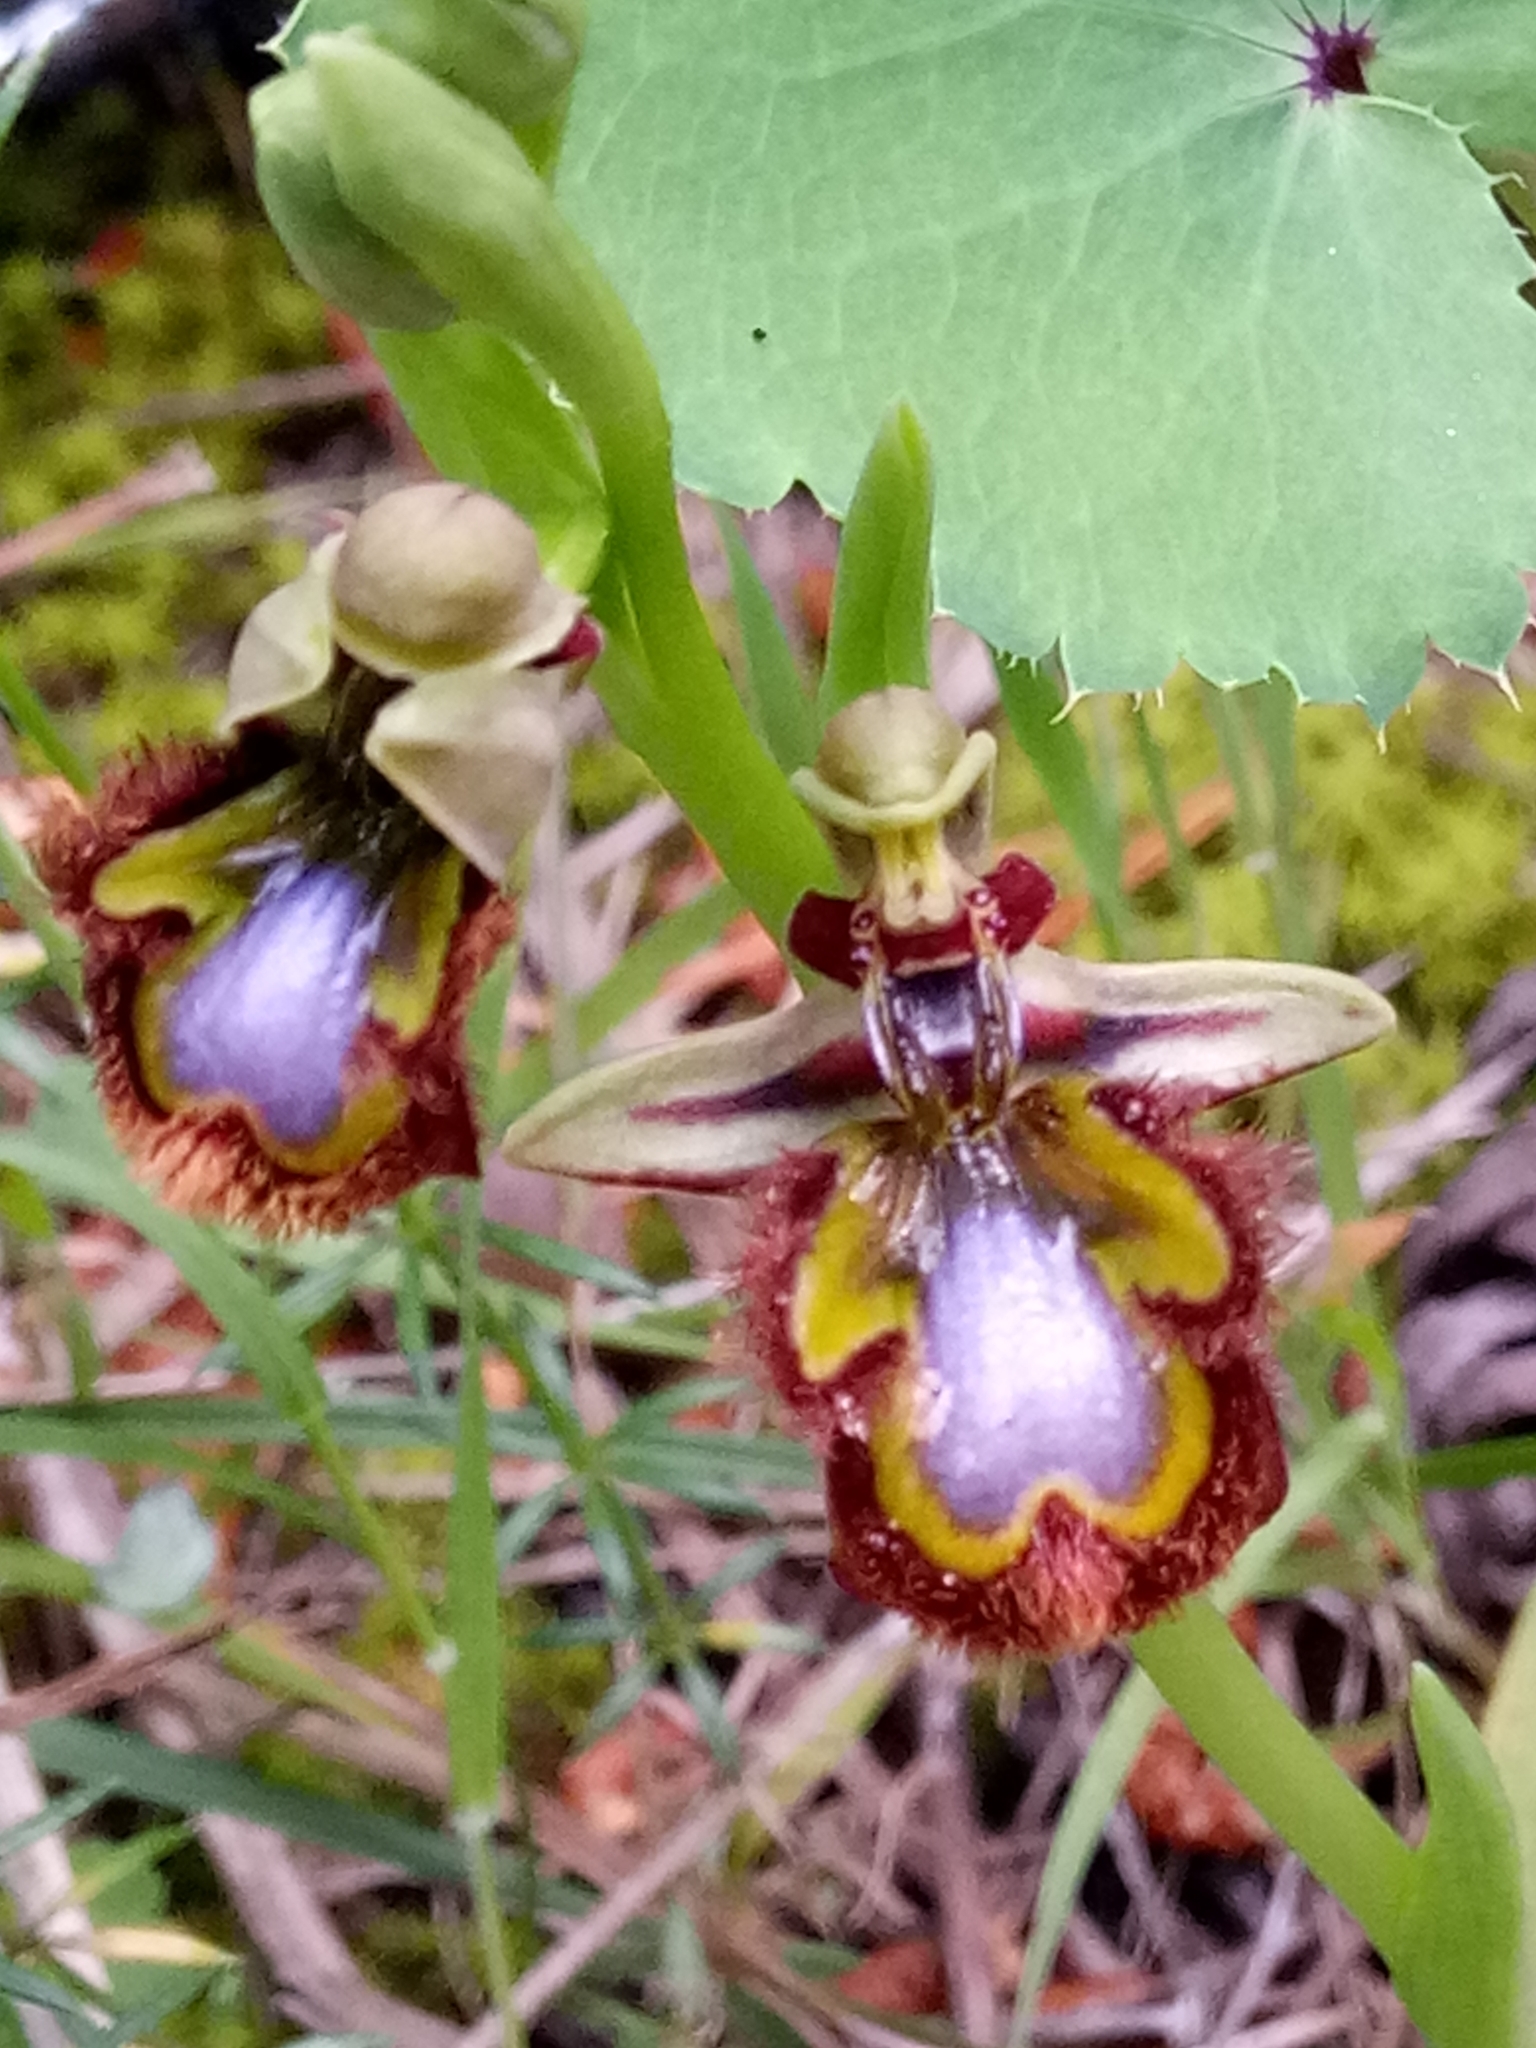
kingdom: Plantae
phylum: Tracheophyta
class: Liliopsida
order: Asparagales
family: Orchidaceae
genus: Ophrys
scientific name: Ophrys speculum
